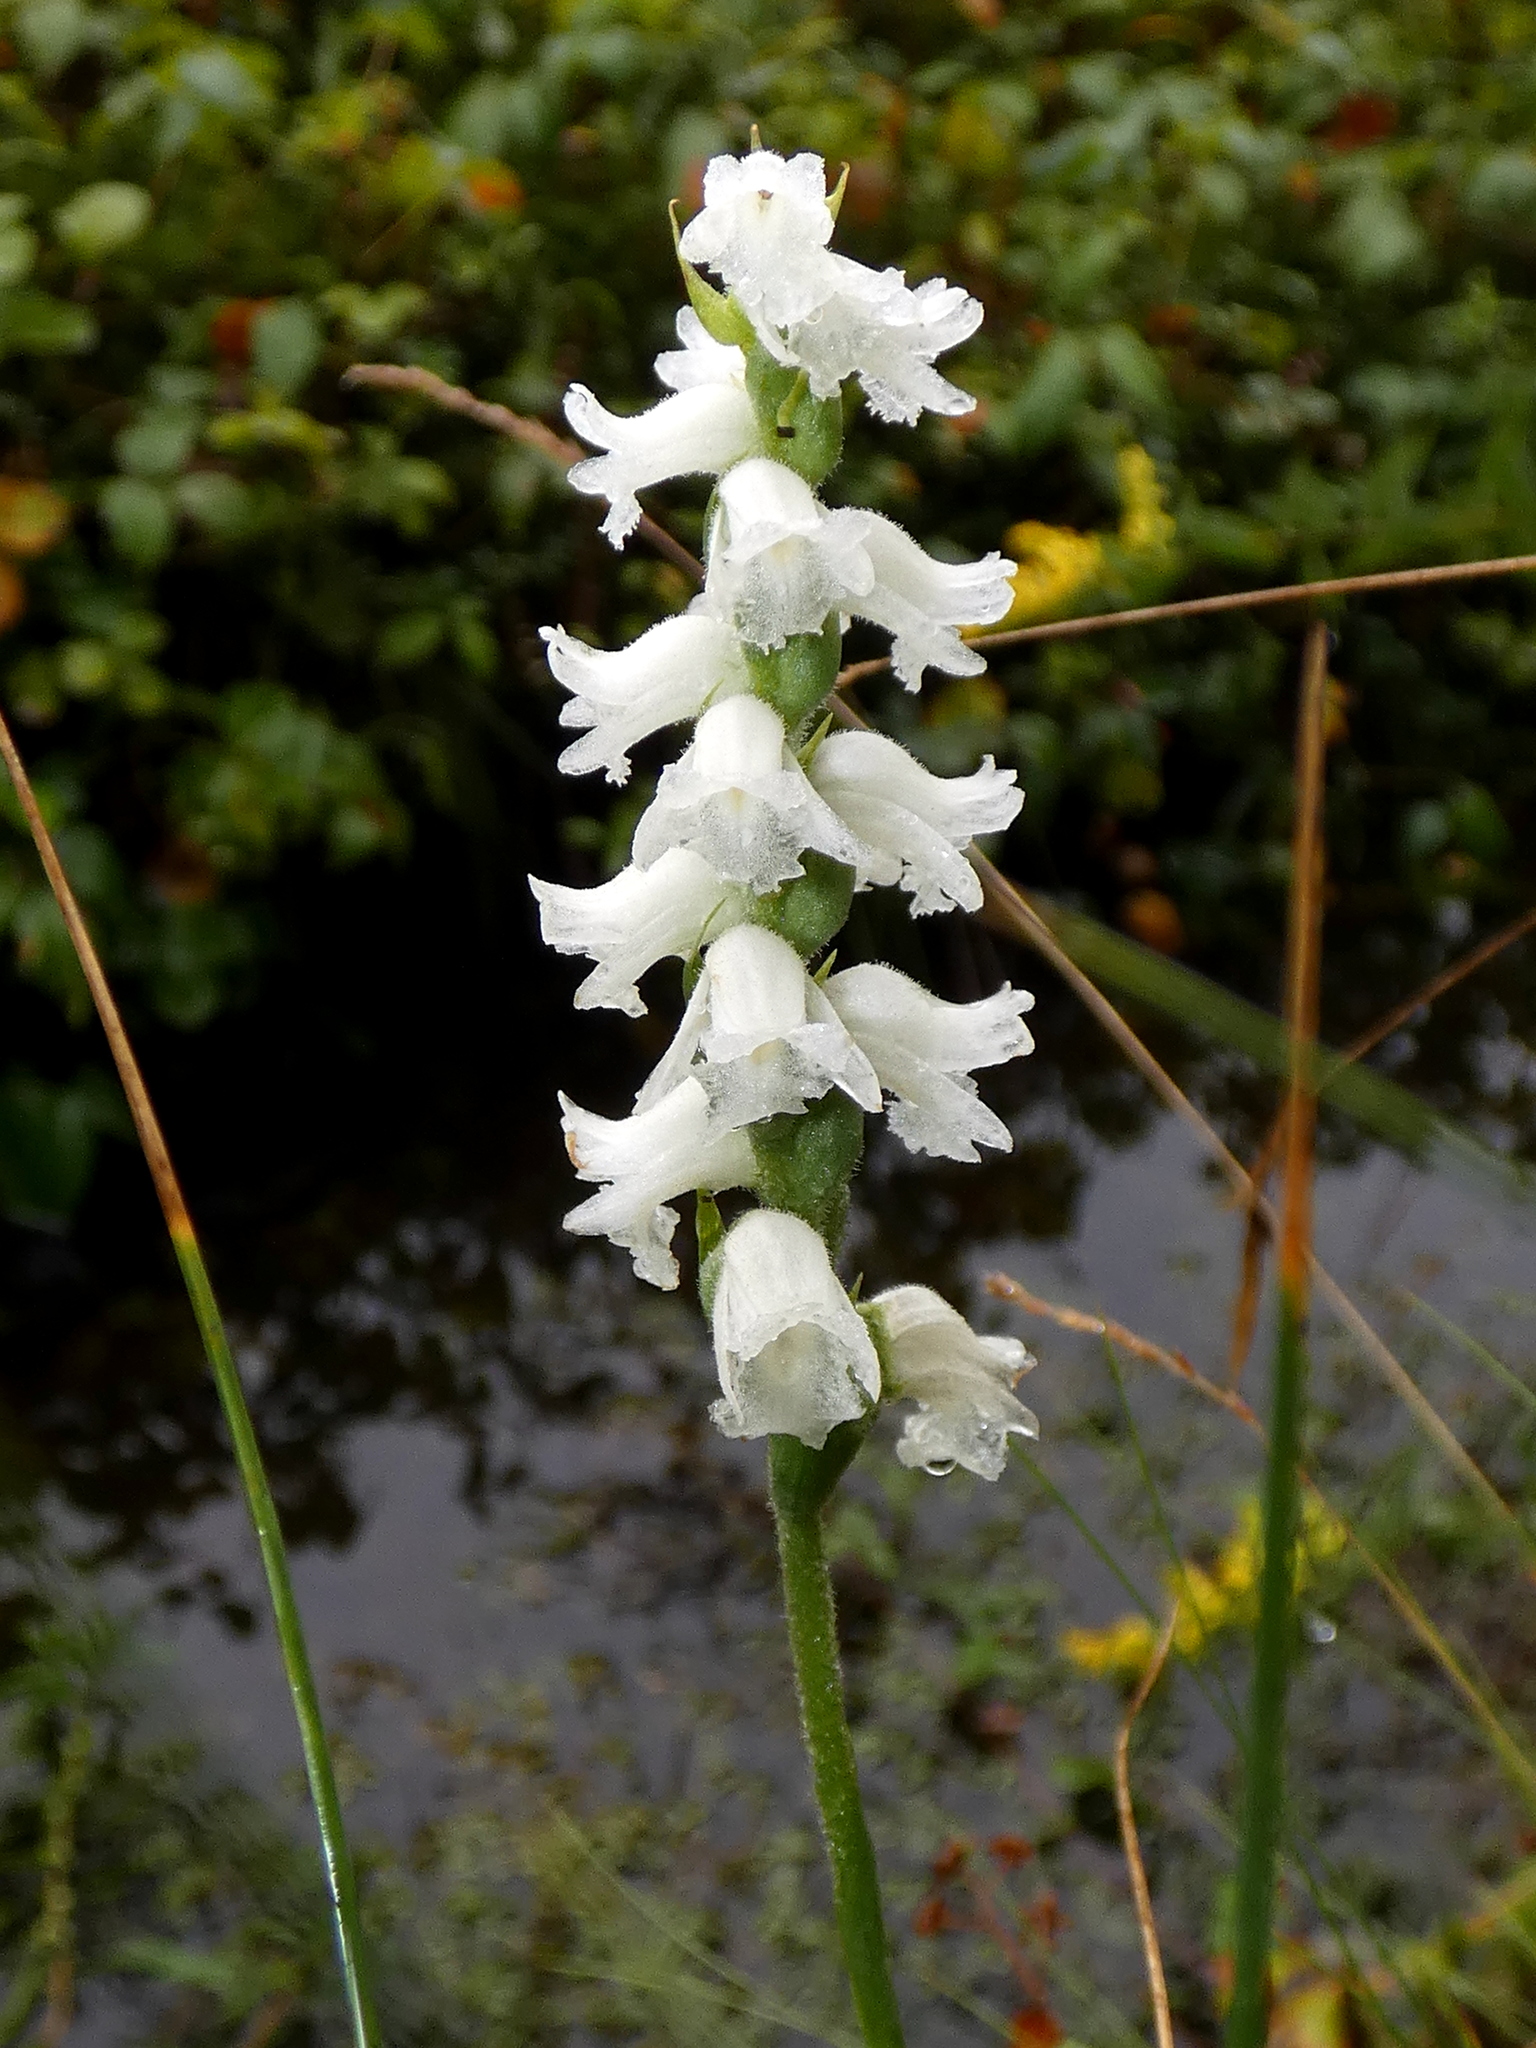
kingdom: Plantae
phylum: Tracheophyta
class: Liliopsida
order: Asparagales
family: Orchidaceae
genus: Spiranthes
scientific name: Spiranthes arcisepala
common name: Appalachian ladies'-tresses
